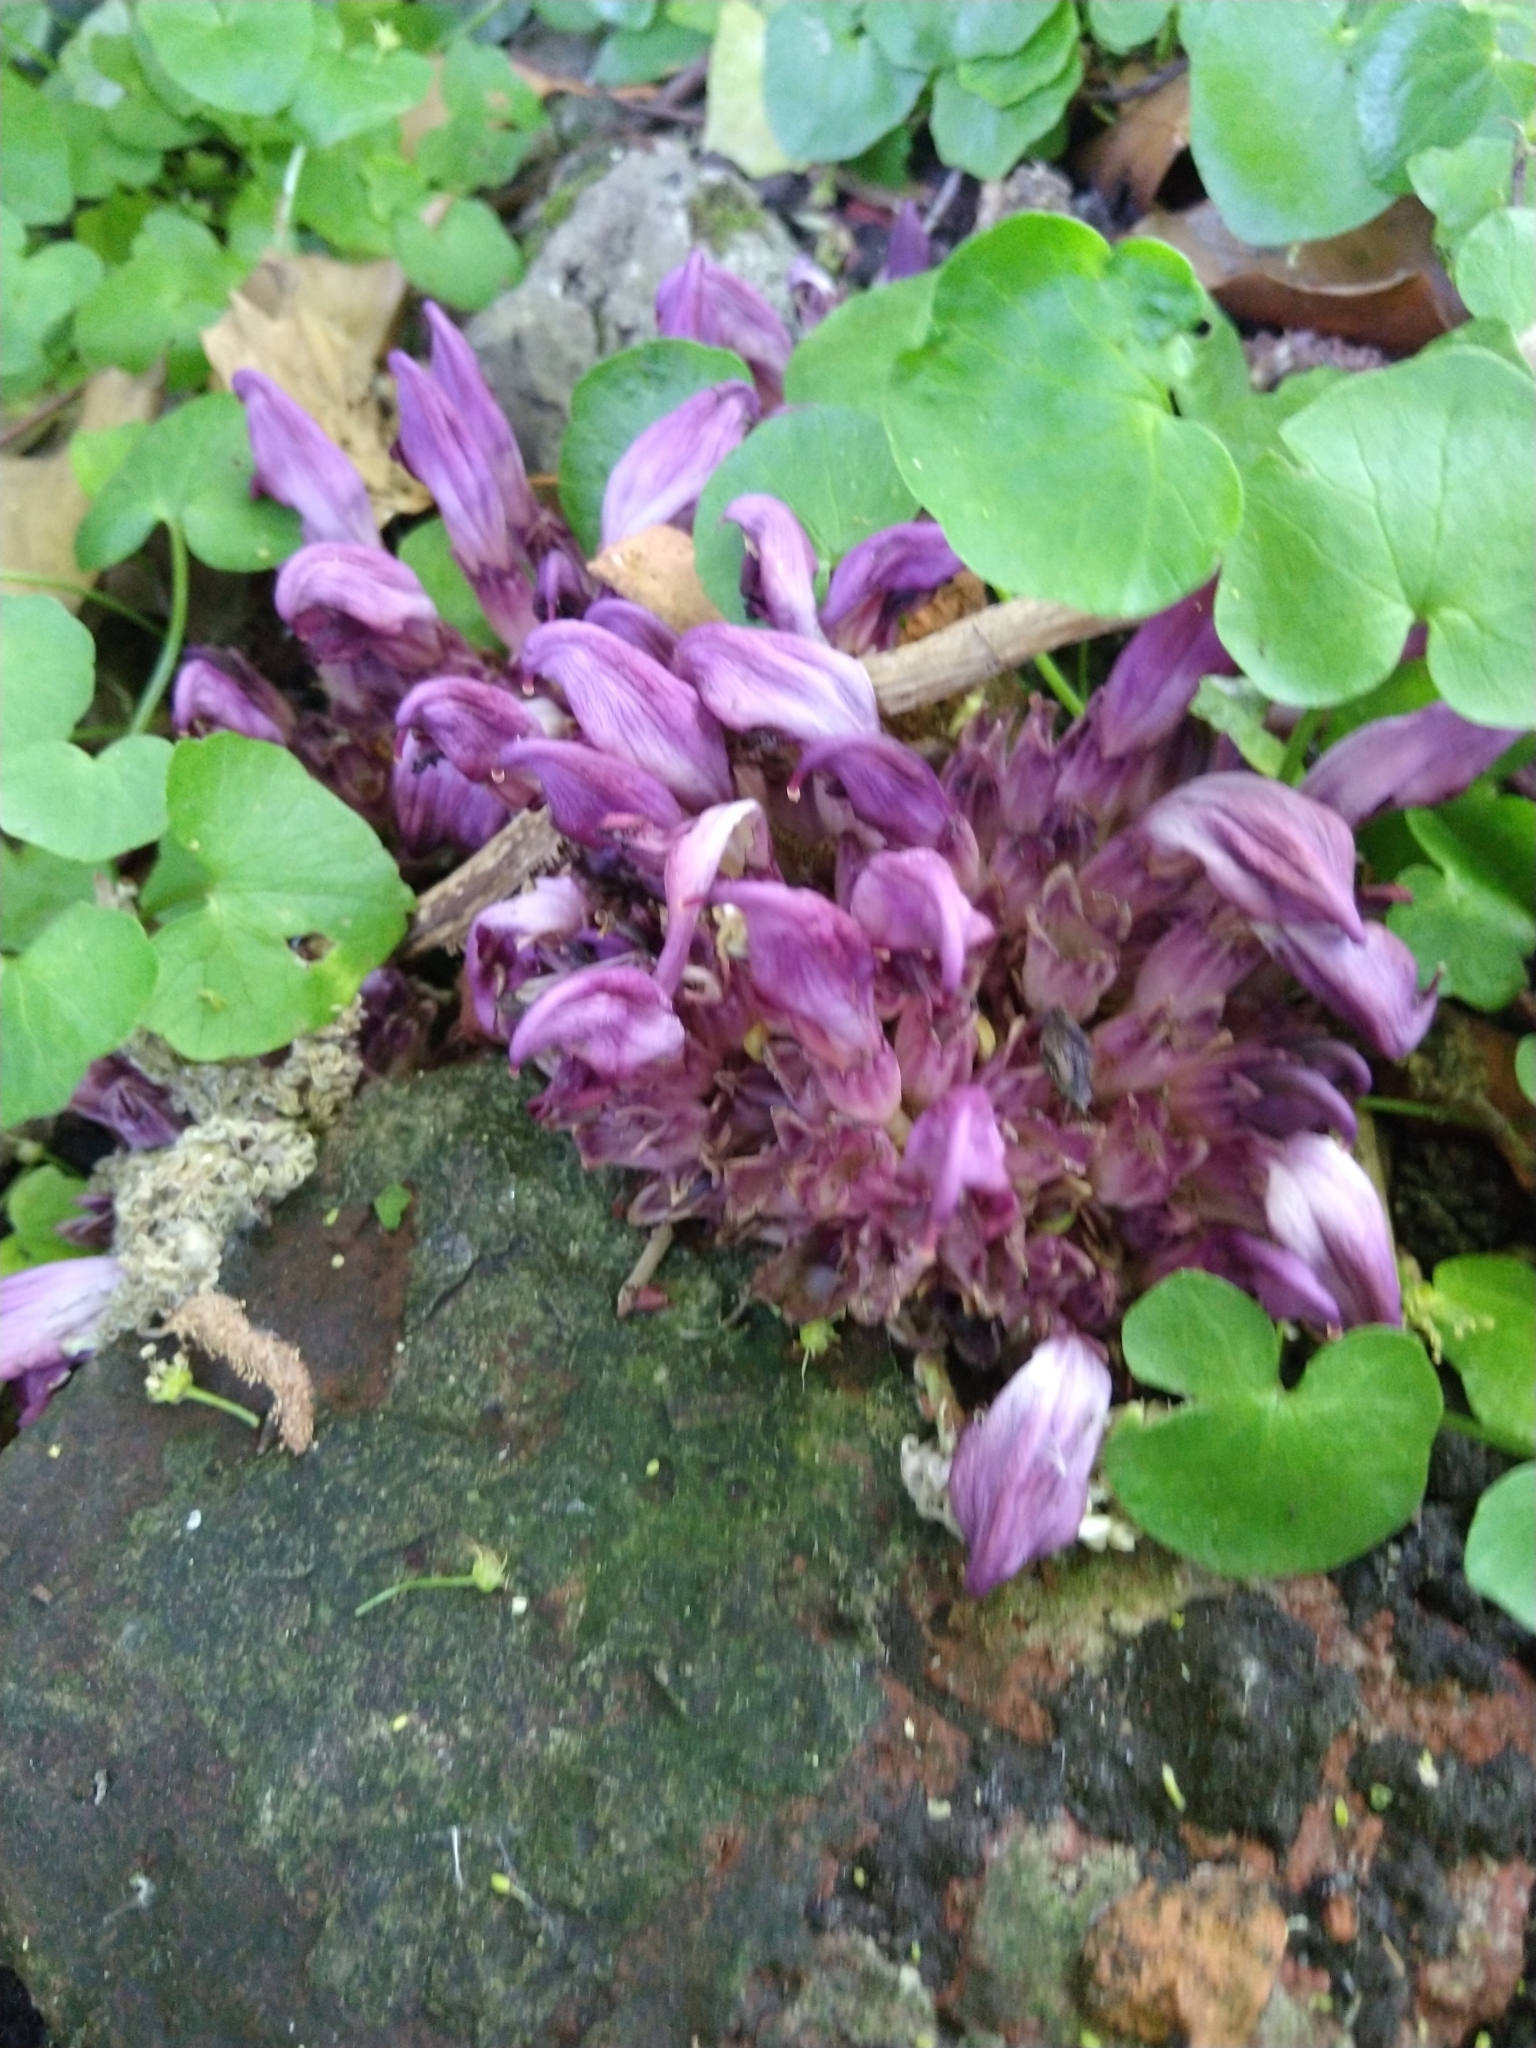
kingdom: Plantae
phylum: Tracheophyta
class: Magnoliopsida
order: Lamiales
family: Orobanchaceae
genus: Lathraea
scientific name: Lathraea clandestina
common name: Purple toothwort
